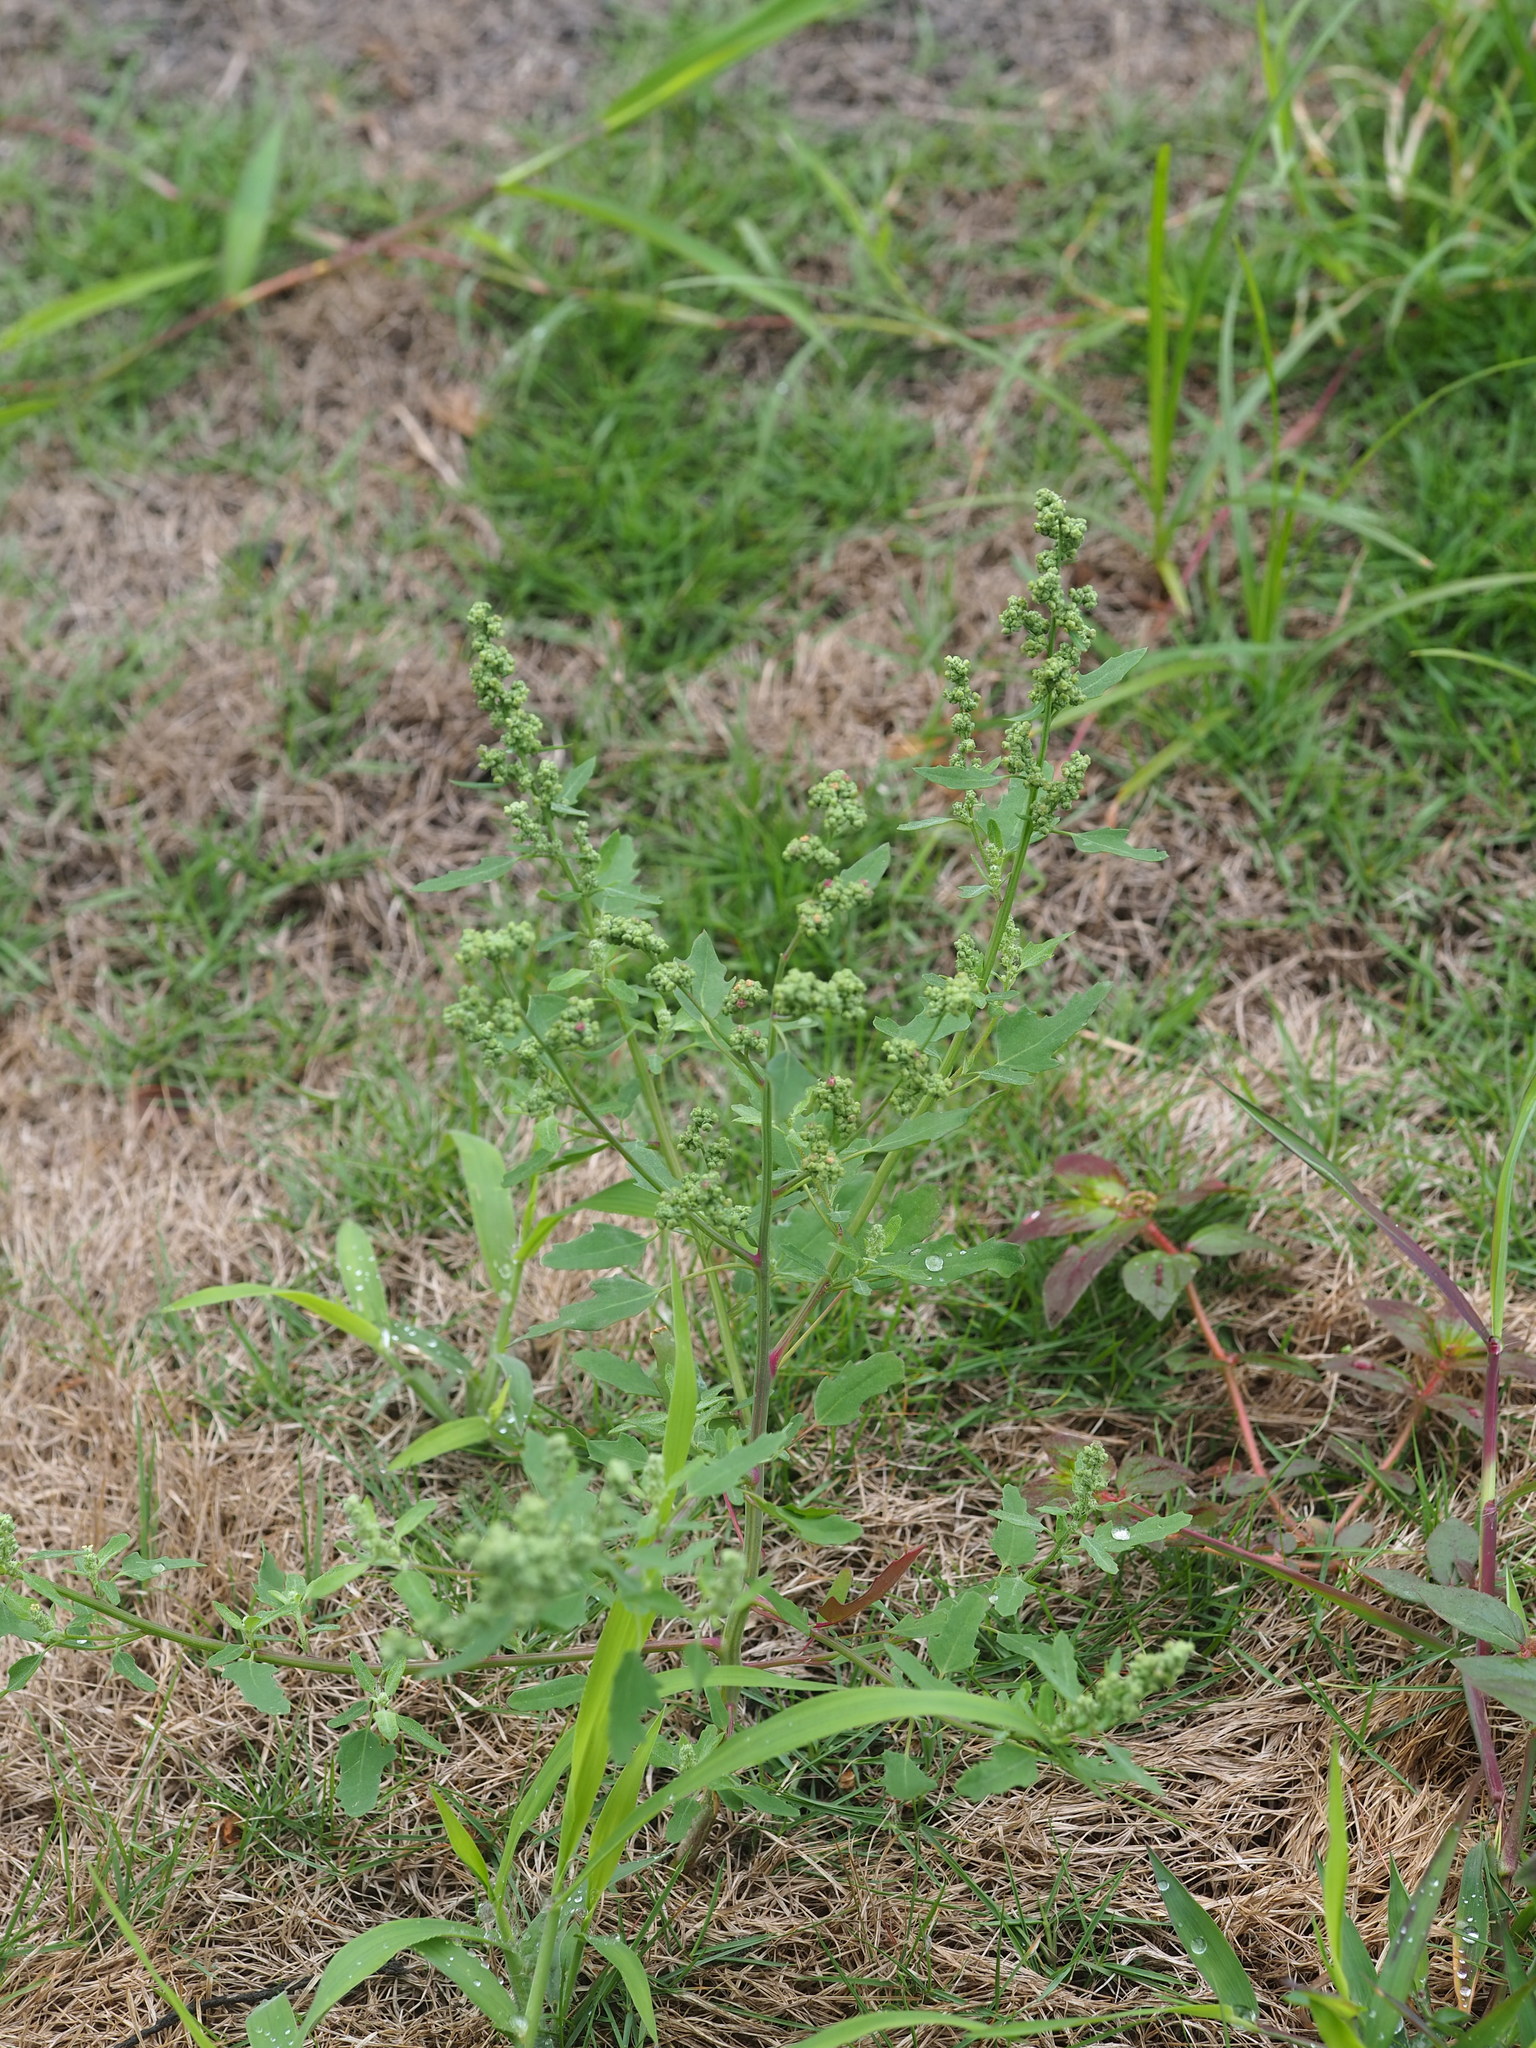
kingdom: Plantae
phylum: Tracheophyta
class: Magnoliopsida
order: Caryophyllales
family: Amaranthaceae
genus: Chenopodium
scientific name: Chenopodium ficifolium
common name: Fig-leaved goosefoot
